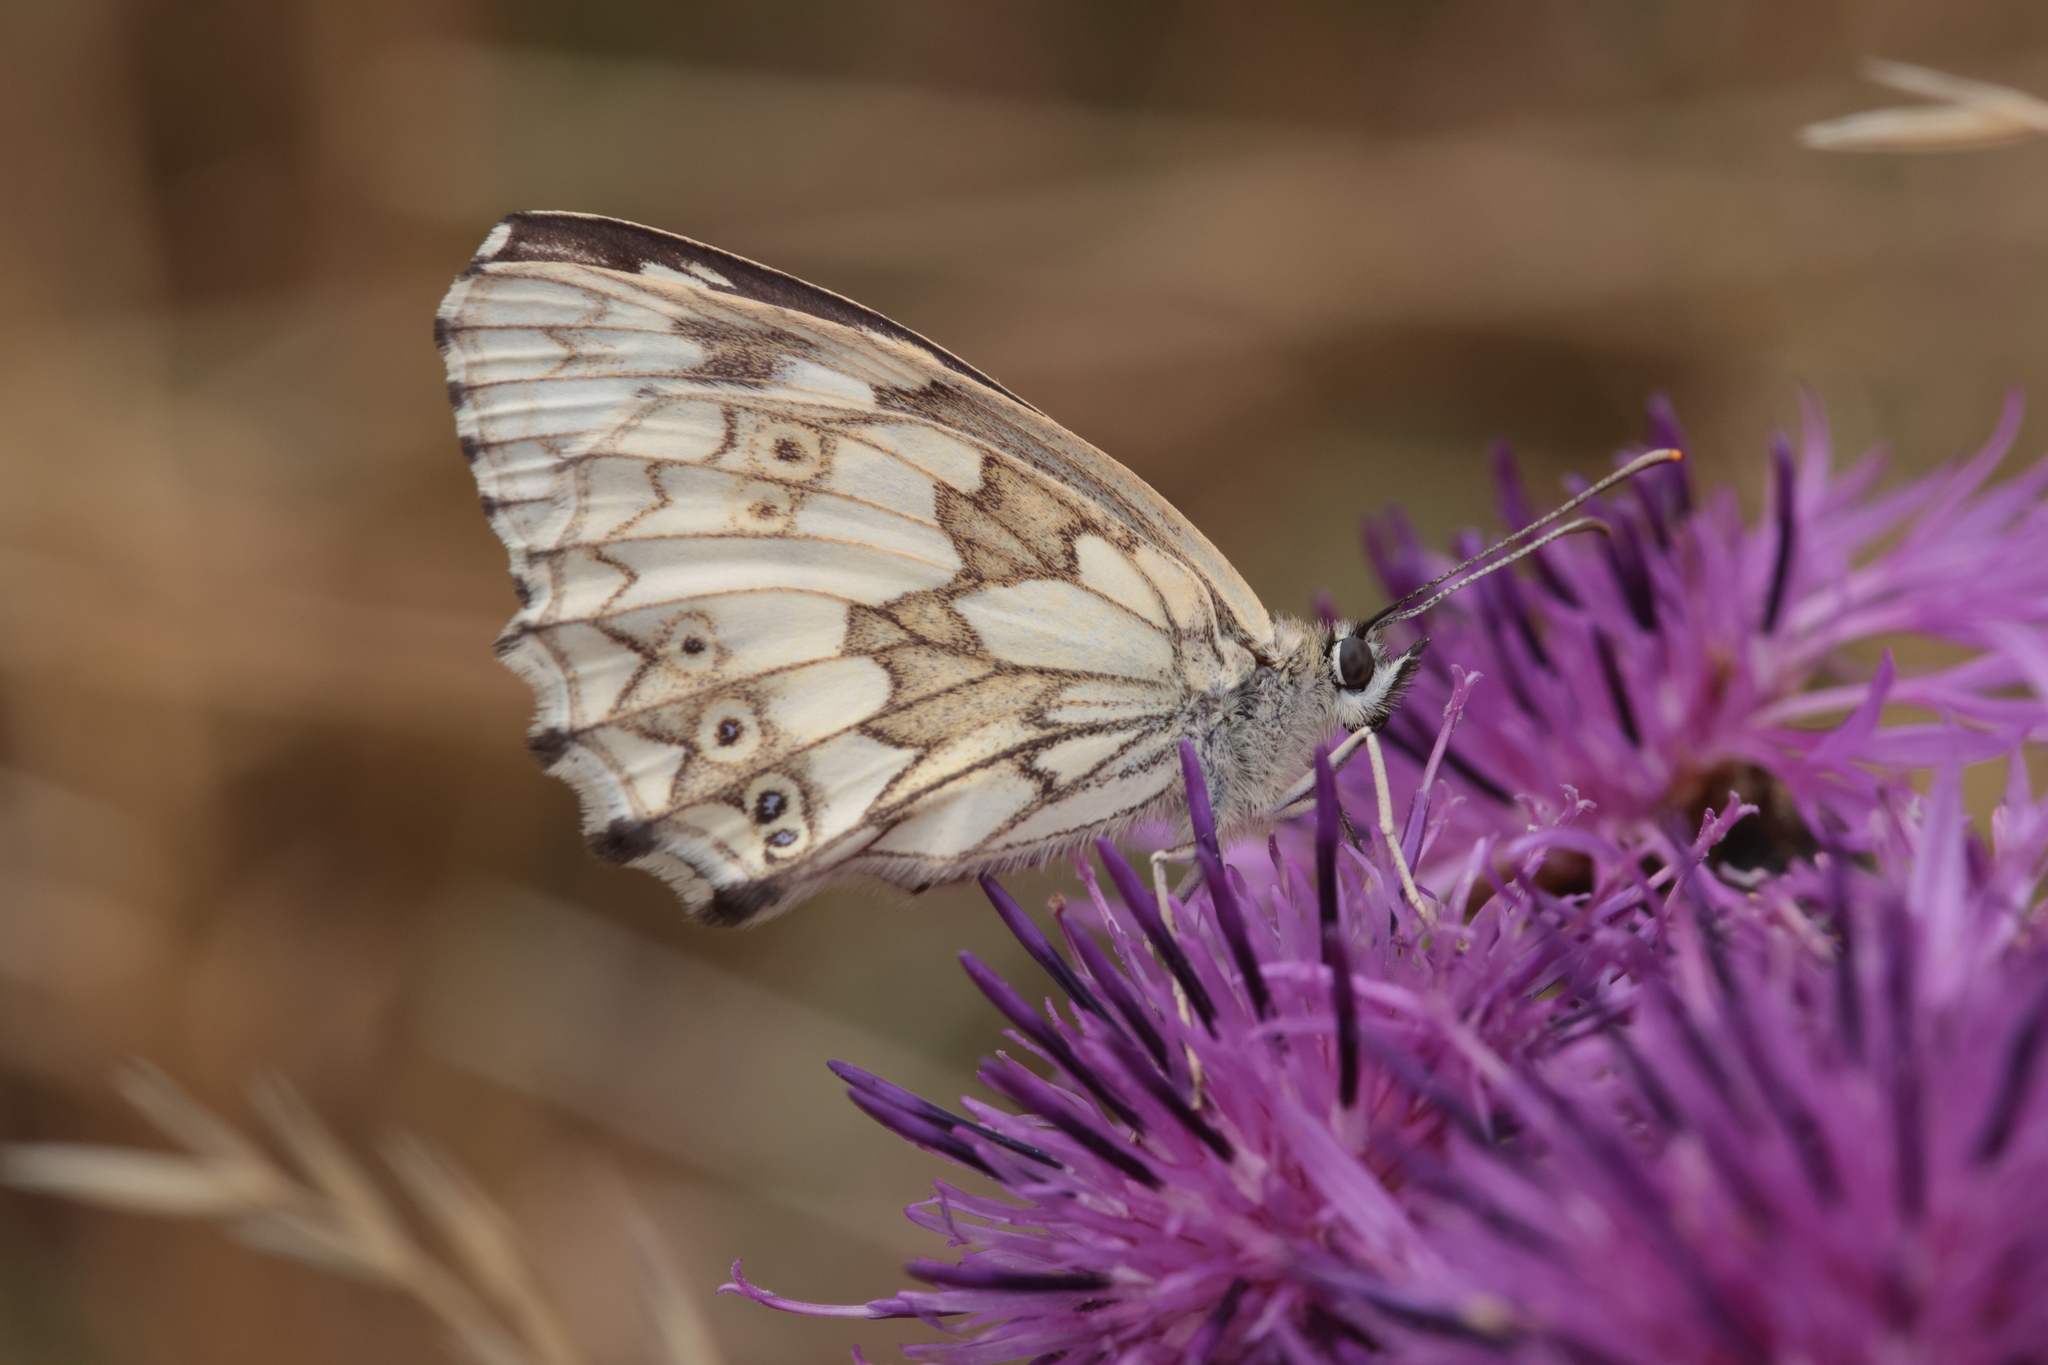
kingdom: Animalia
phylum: Arthropoda
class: Insecta
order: Lepidoptera
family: Nymphalidae
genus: Melanargia
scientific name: Melanargia galathea
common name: Marbled white
